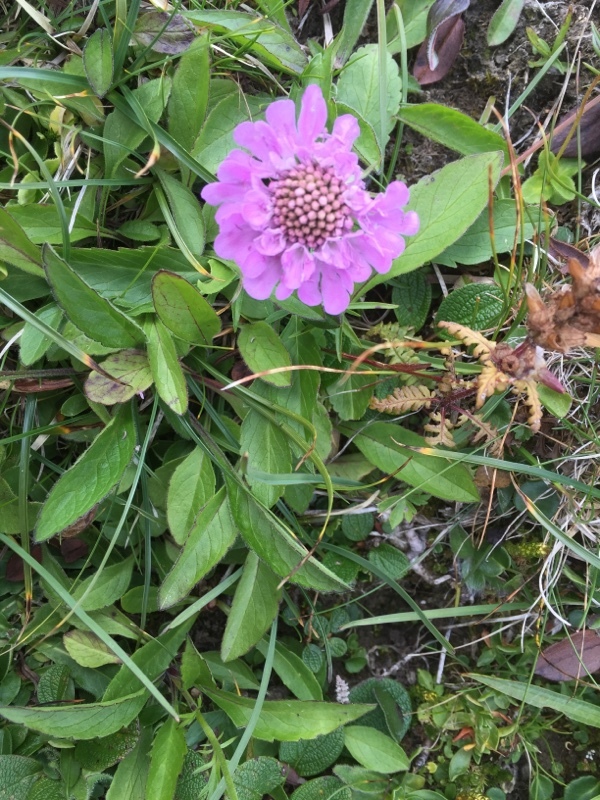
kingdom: Plantae
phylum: Tracheophyta
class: Magnoliopsida
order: Dipsacales
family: Caprifoliaceae
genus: Scabiosa
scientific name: Scabiosa lucida
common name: Shining scabious
